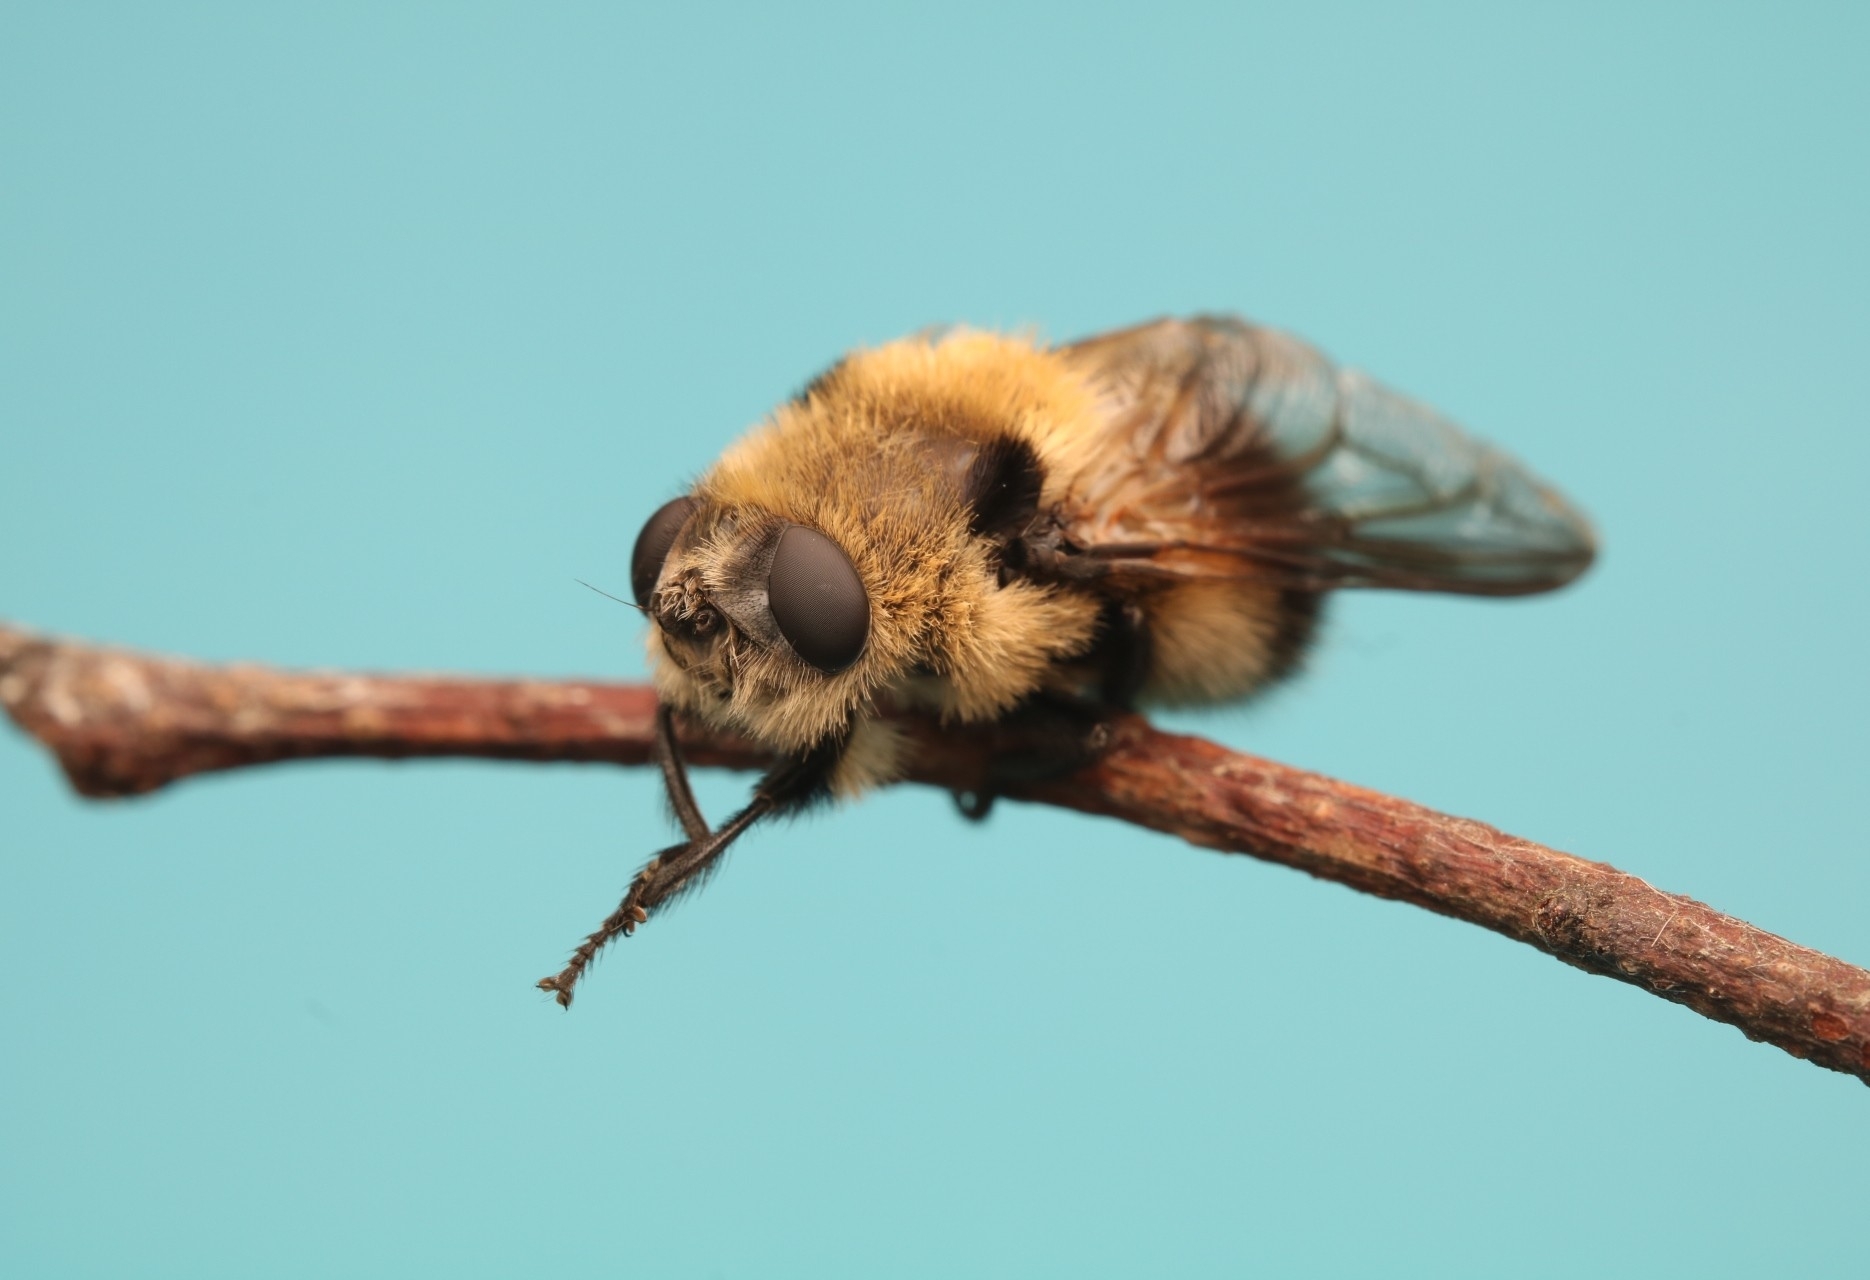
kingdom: Animalia
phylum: Arthropoda
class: Insecta
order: Diptera
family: Oestridae
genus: Cephenemyia
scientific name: Cephenemyia phobifer
